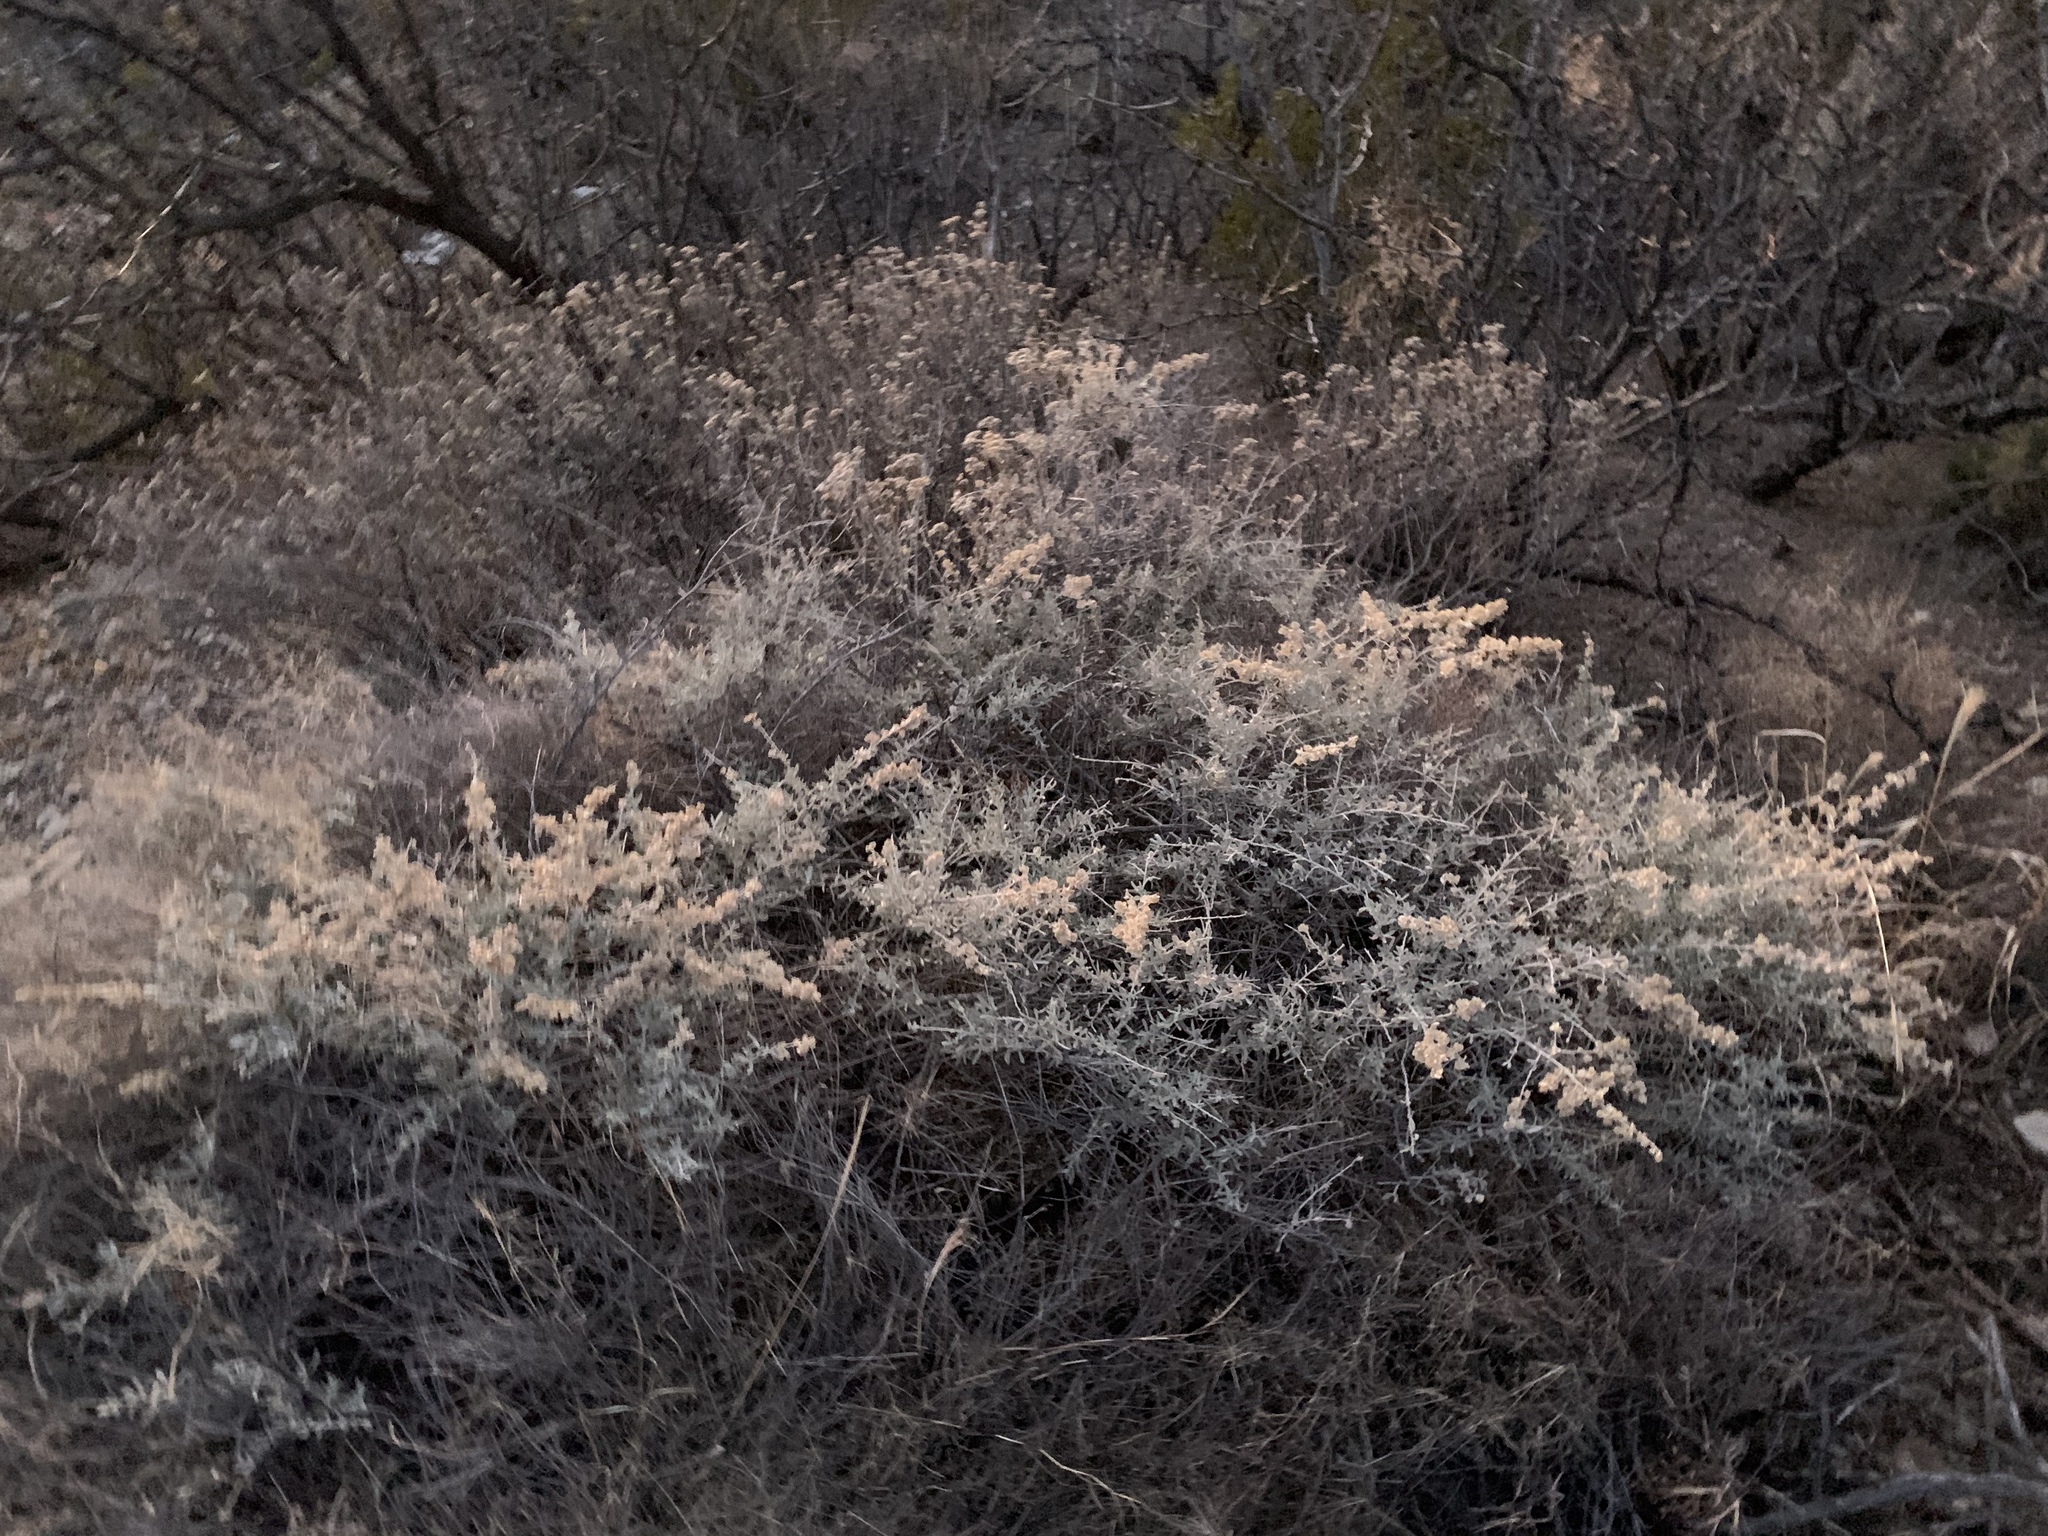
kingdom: Plantae
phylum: Tracheophyta
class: Magnoliopsida
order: Caryophyllales
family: Amaranthaceae
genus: Atriplex
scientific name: Atriplex canescens
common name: Four-wing saltbush
